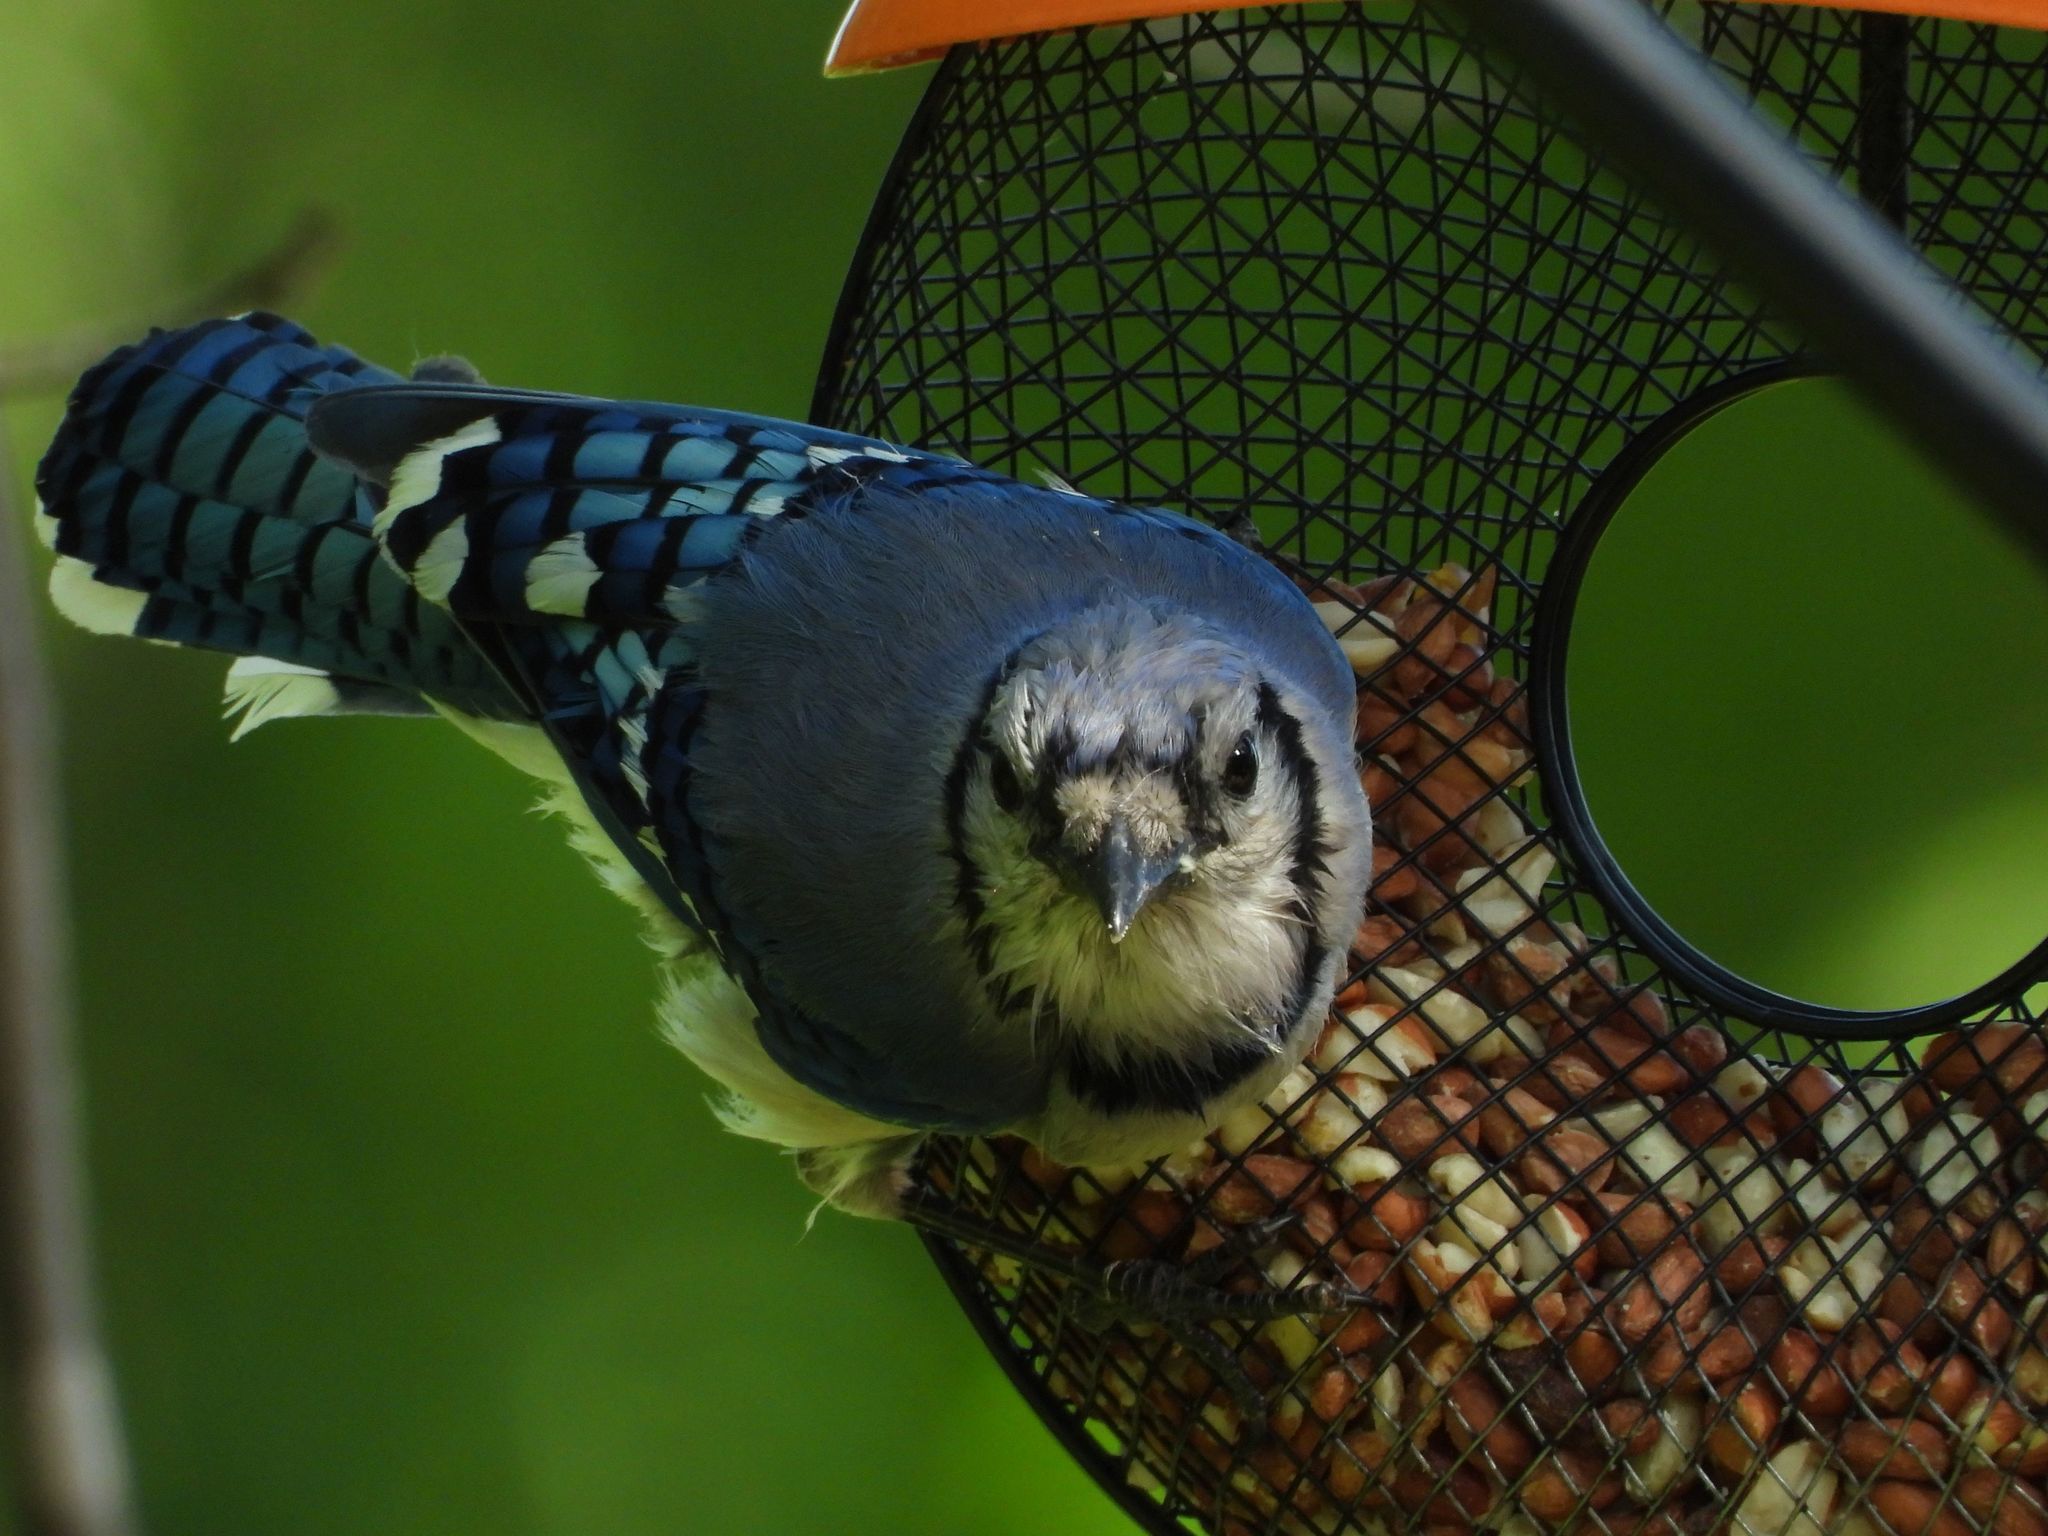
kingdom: Animalia
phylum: Chordata
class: Aves
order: Passeriformes
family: Corvidae
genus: Cyanocitta
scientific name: Cyanocitta cristata
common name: Blue jay
